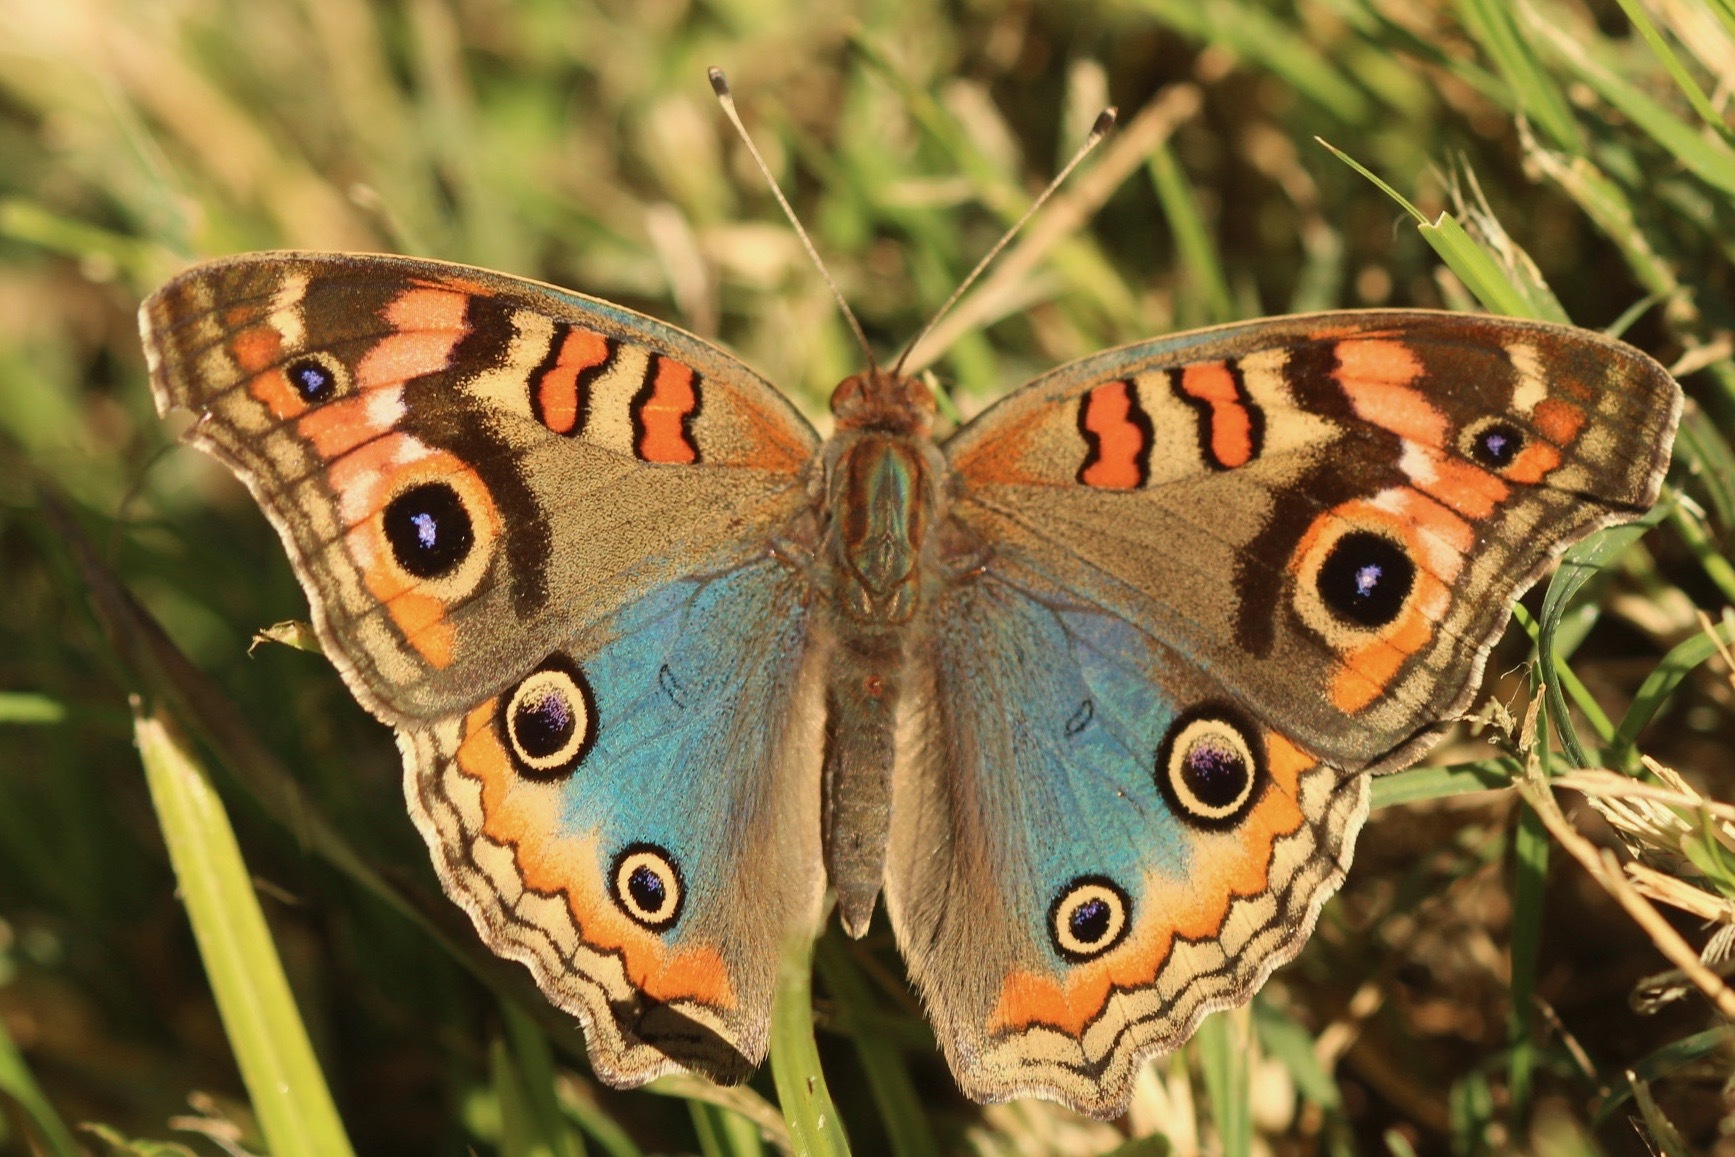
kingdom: Animalia
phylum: Arthropoda
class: Insecta
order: Lepidoptera
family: Nymphalidae
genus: Junonia
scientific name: Junonia lavinia
